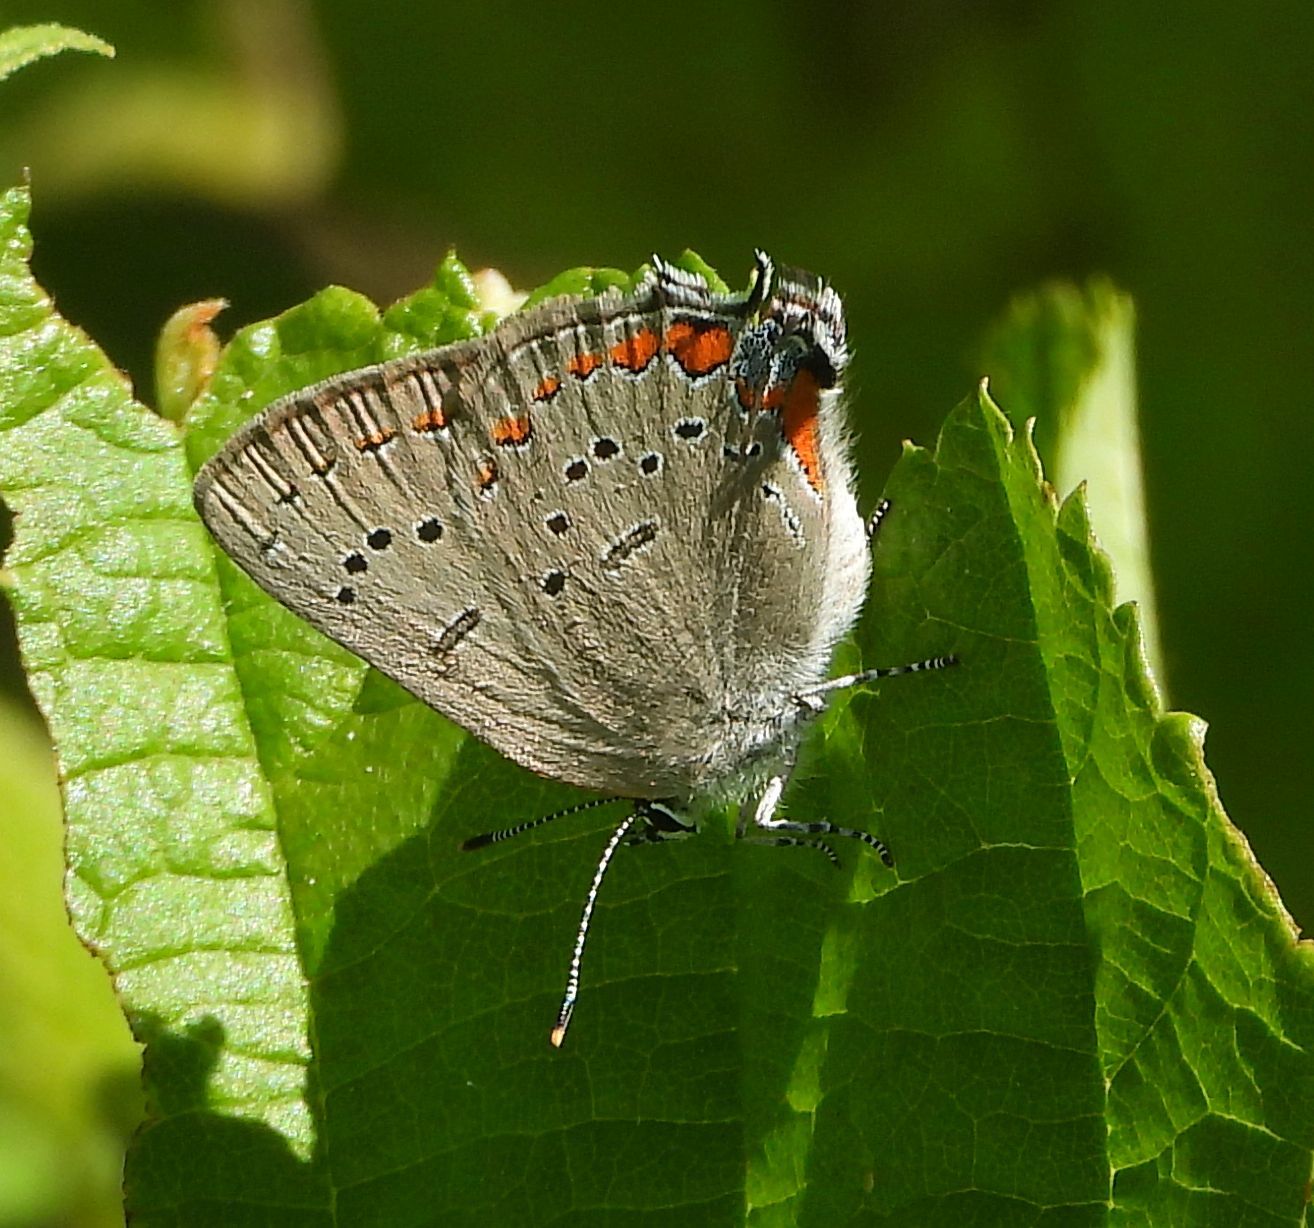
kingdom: Animalia
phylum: Arthropoda
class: Insecta
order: Lepidoptera
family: Lycaenidae
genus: Strymon
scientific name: Strymon acadica
